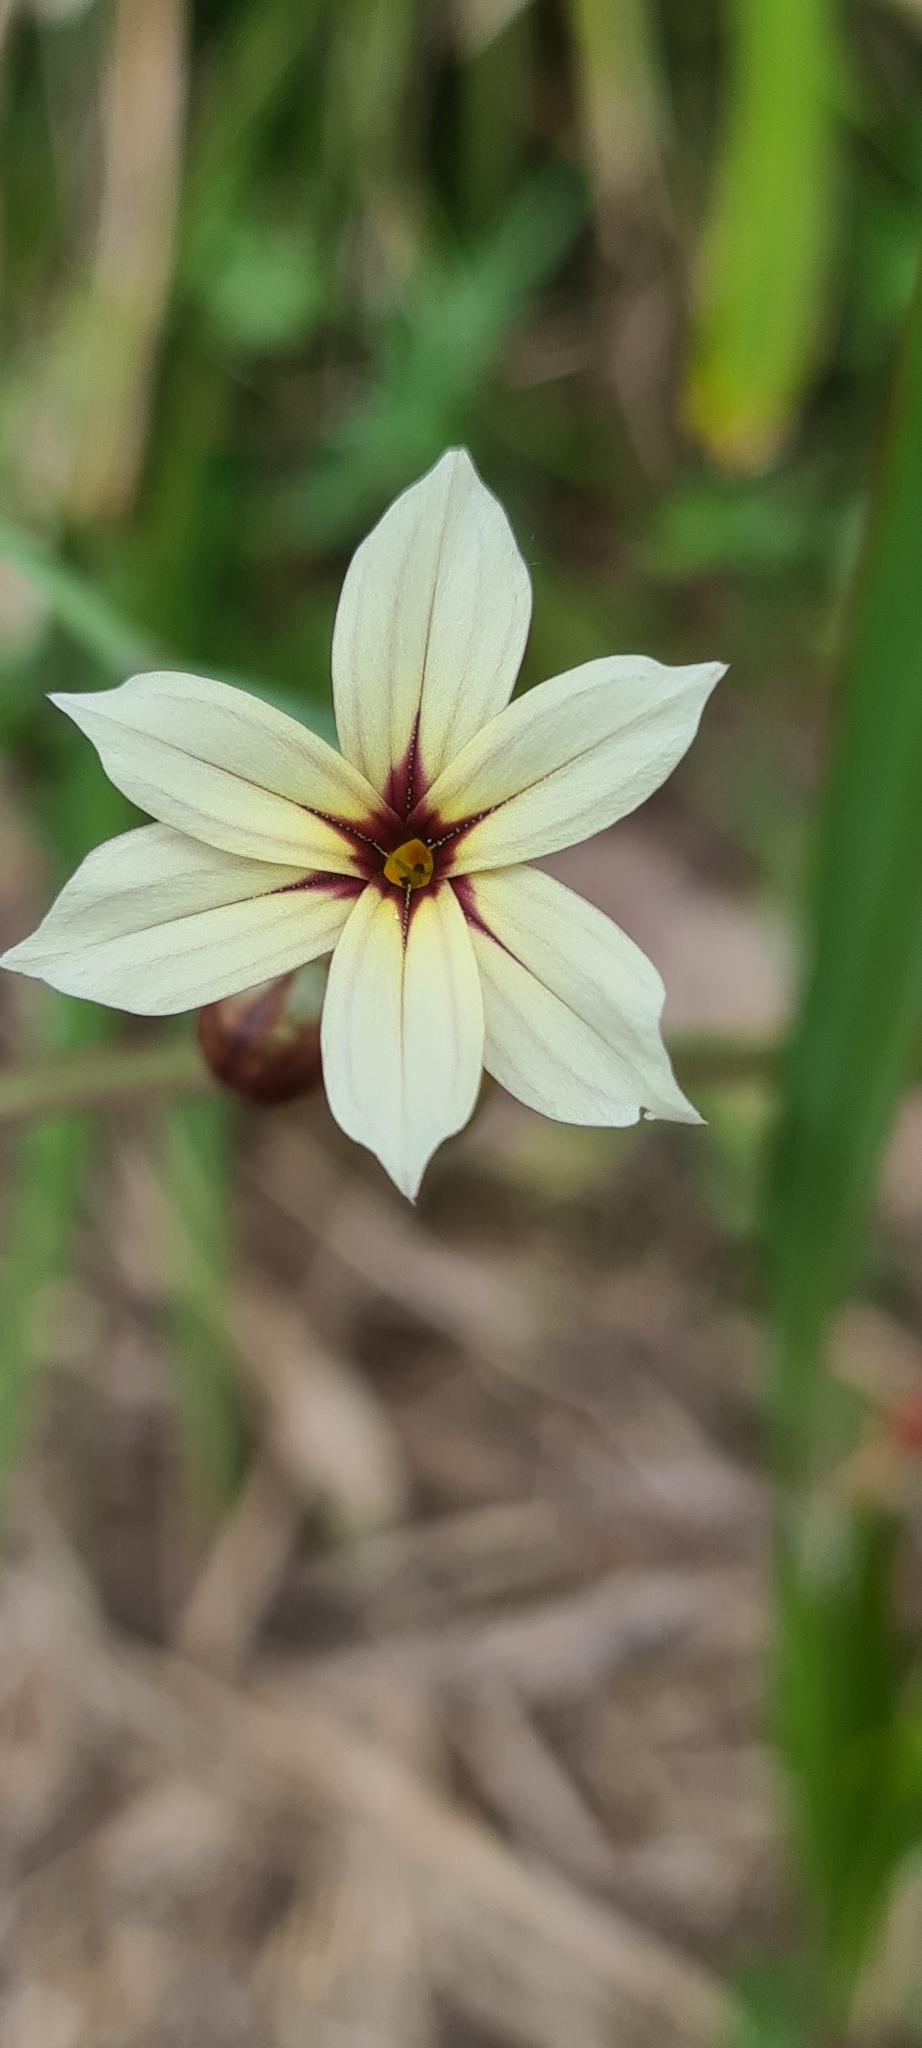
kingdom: Plantae
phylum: Tracheophyta
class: Liliopsida
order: Asparagales
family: Iridaceae
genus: Sisyrinchium
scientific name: Sisyrinchium micranthum
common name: Bermuda pigroot
